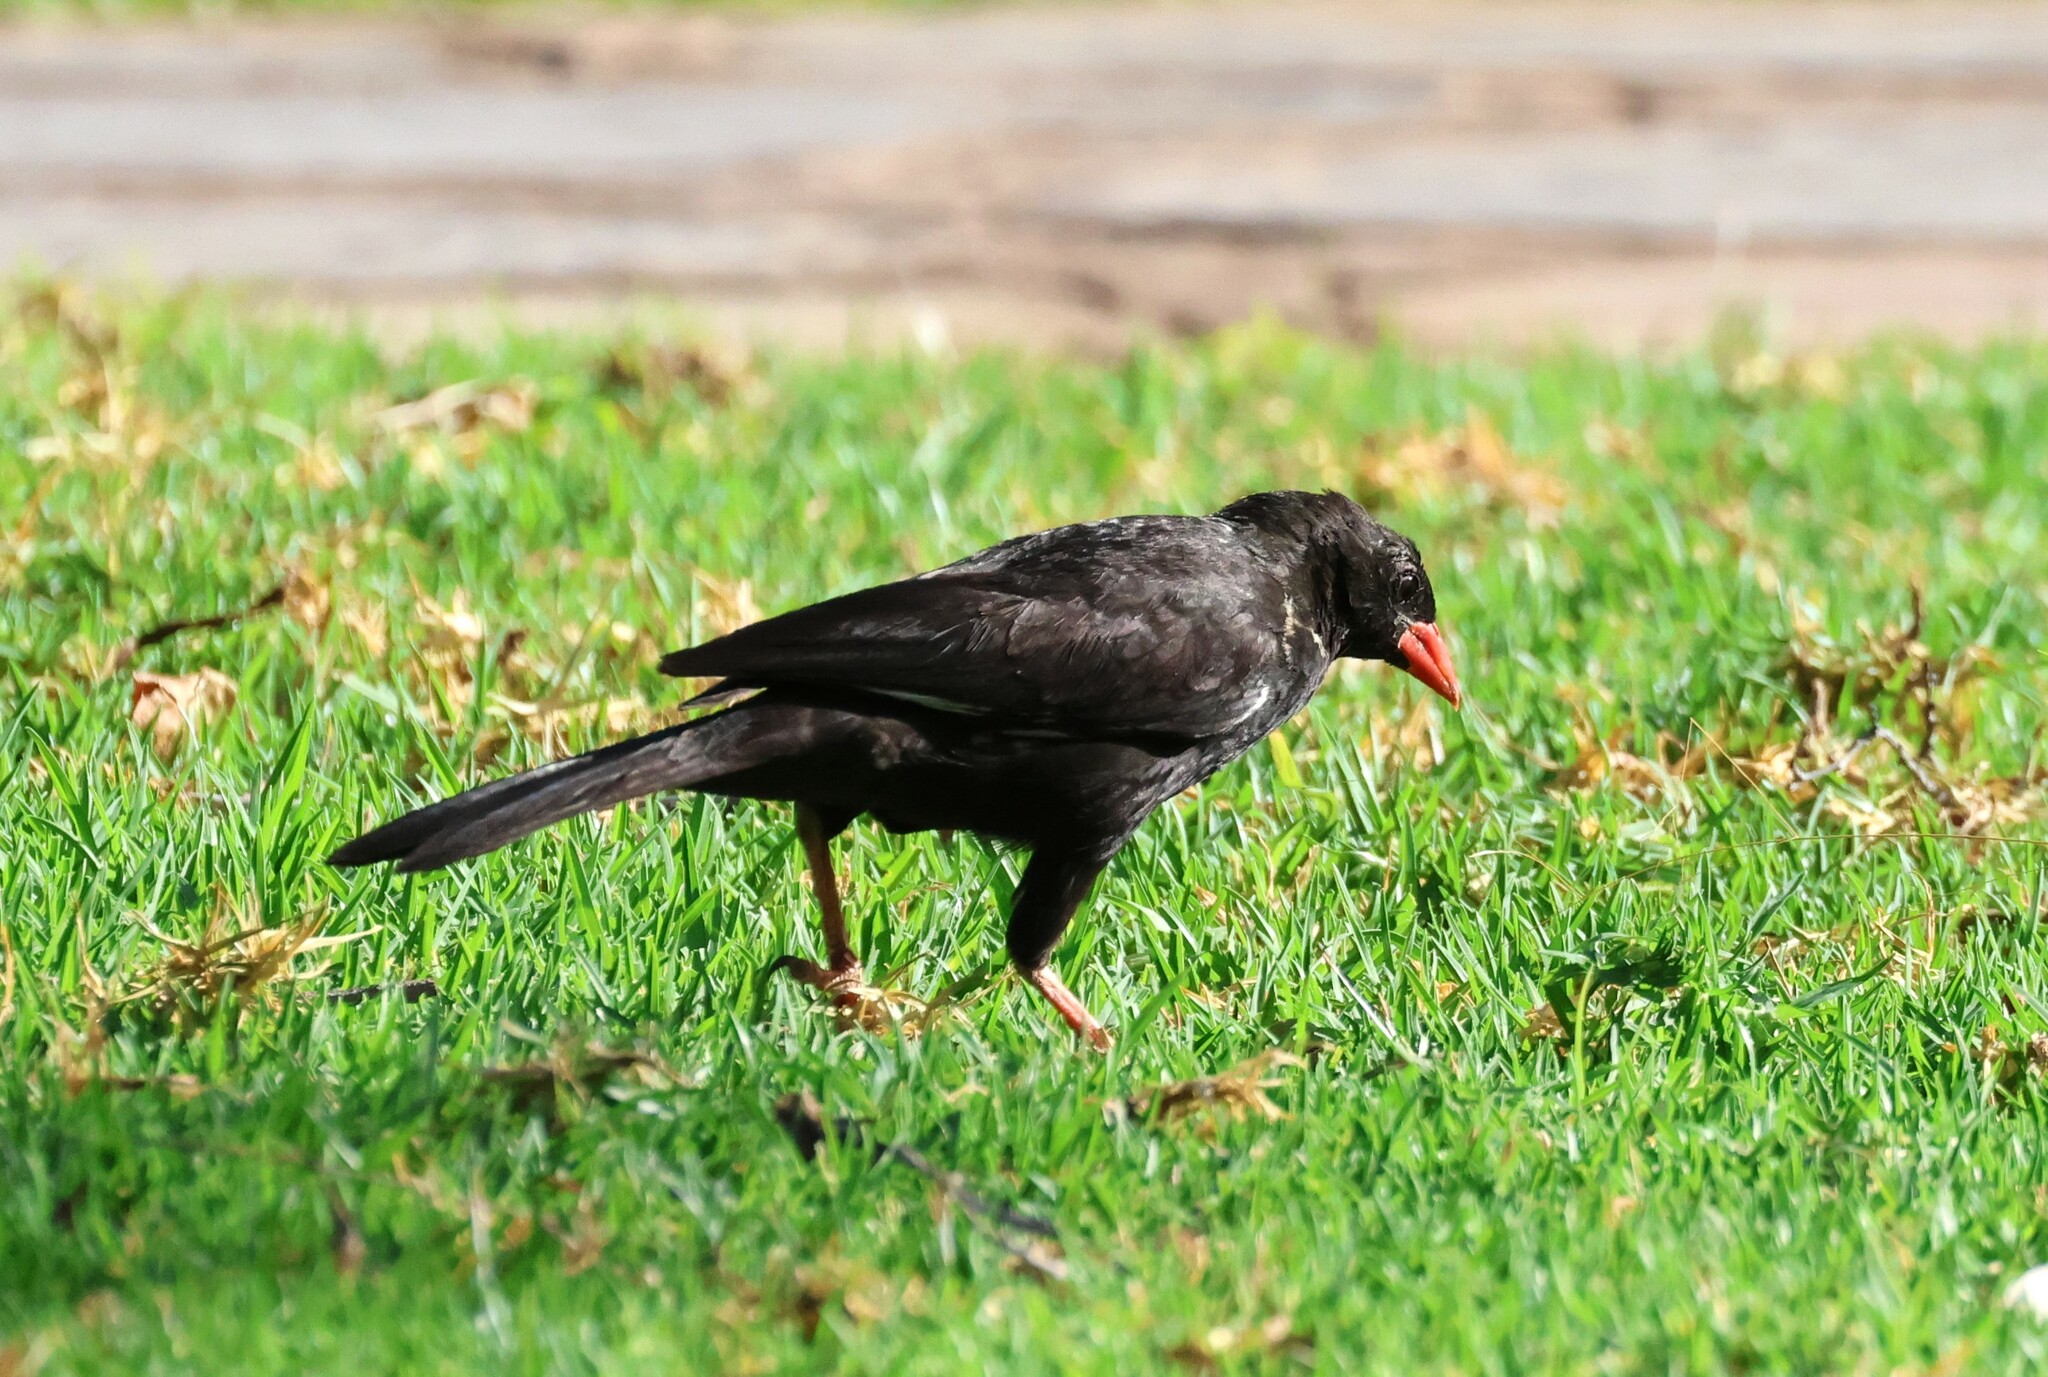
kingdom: Animalia
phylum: Chordata
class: Aves
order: Passeriformes
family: Ploceidae
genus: Bubalornis
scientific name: Bubalornis niger
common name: Red-billed buffalo weaver
